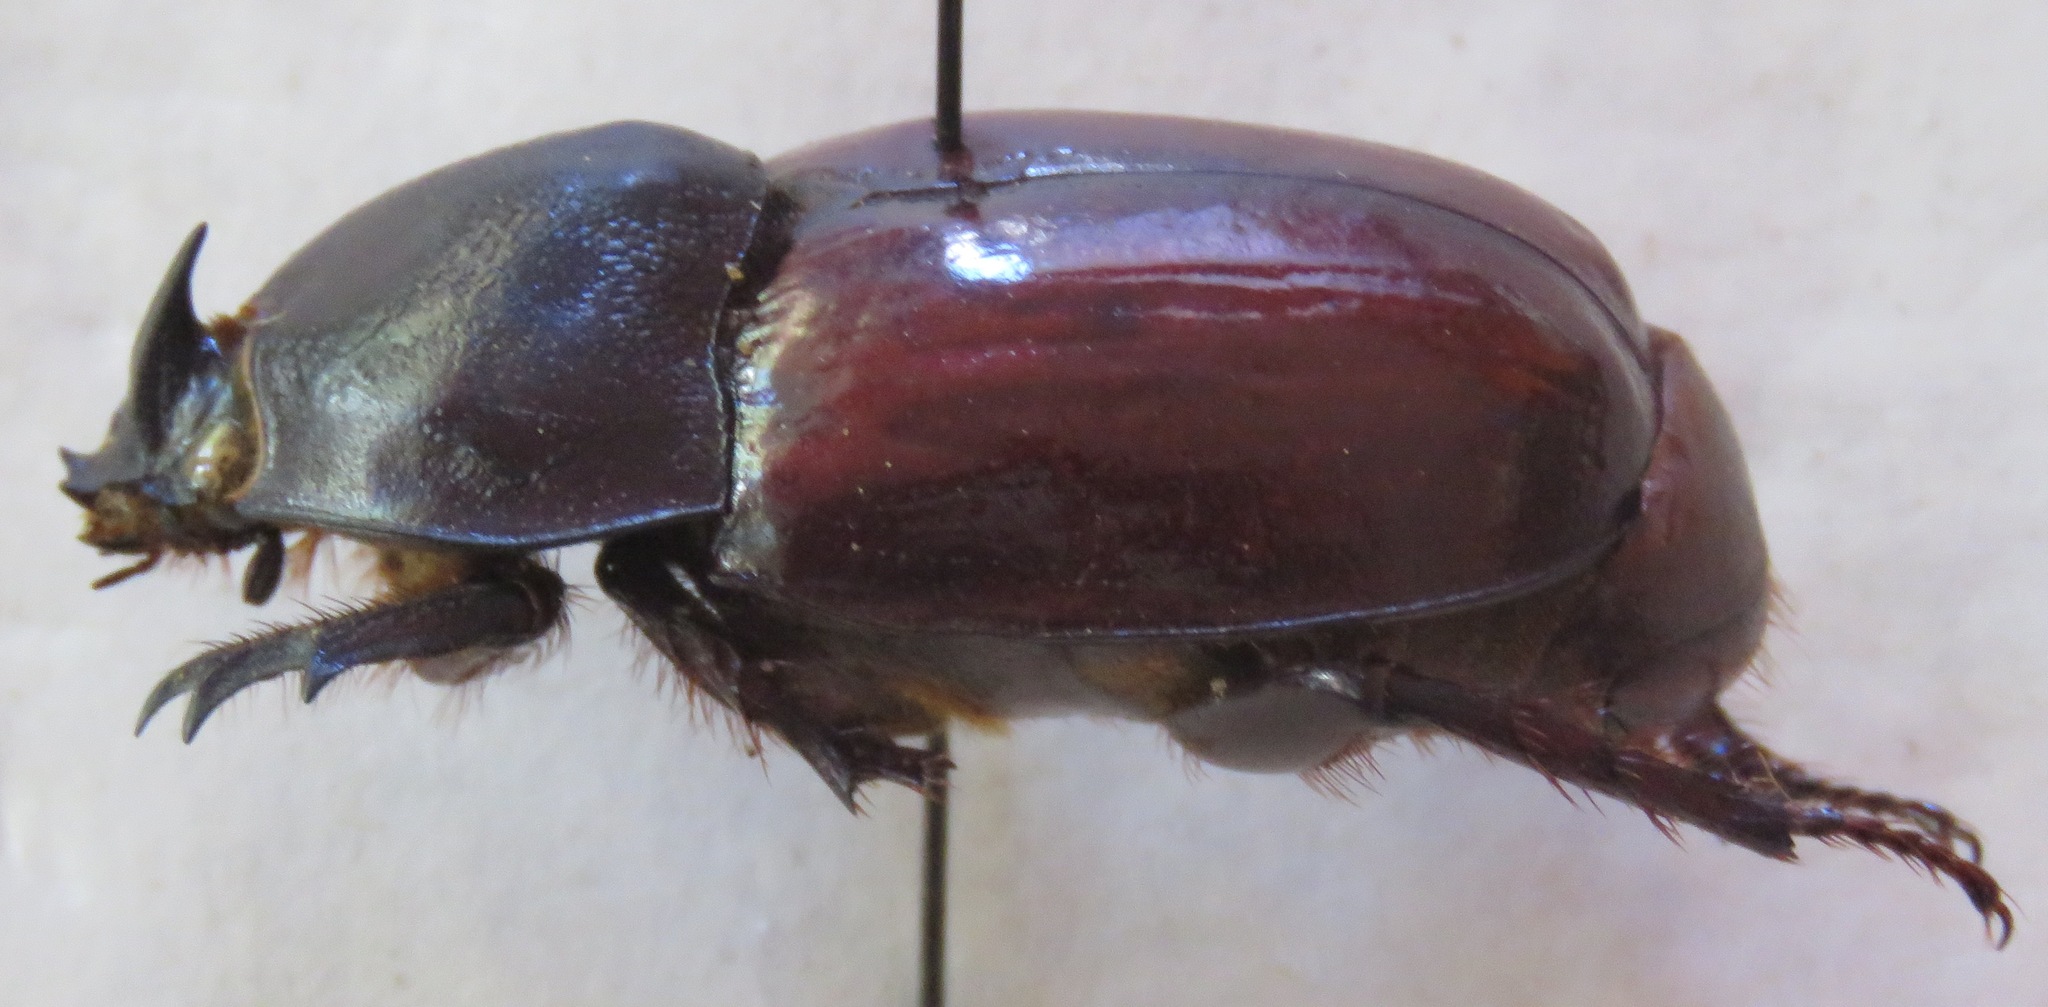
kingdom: Animalia
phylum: Arthropoda
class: Insecta
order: Coleoptera
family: Scarabaeidae
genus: Enema
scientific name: Enema endymion
